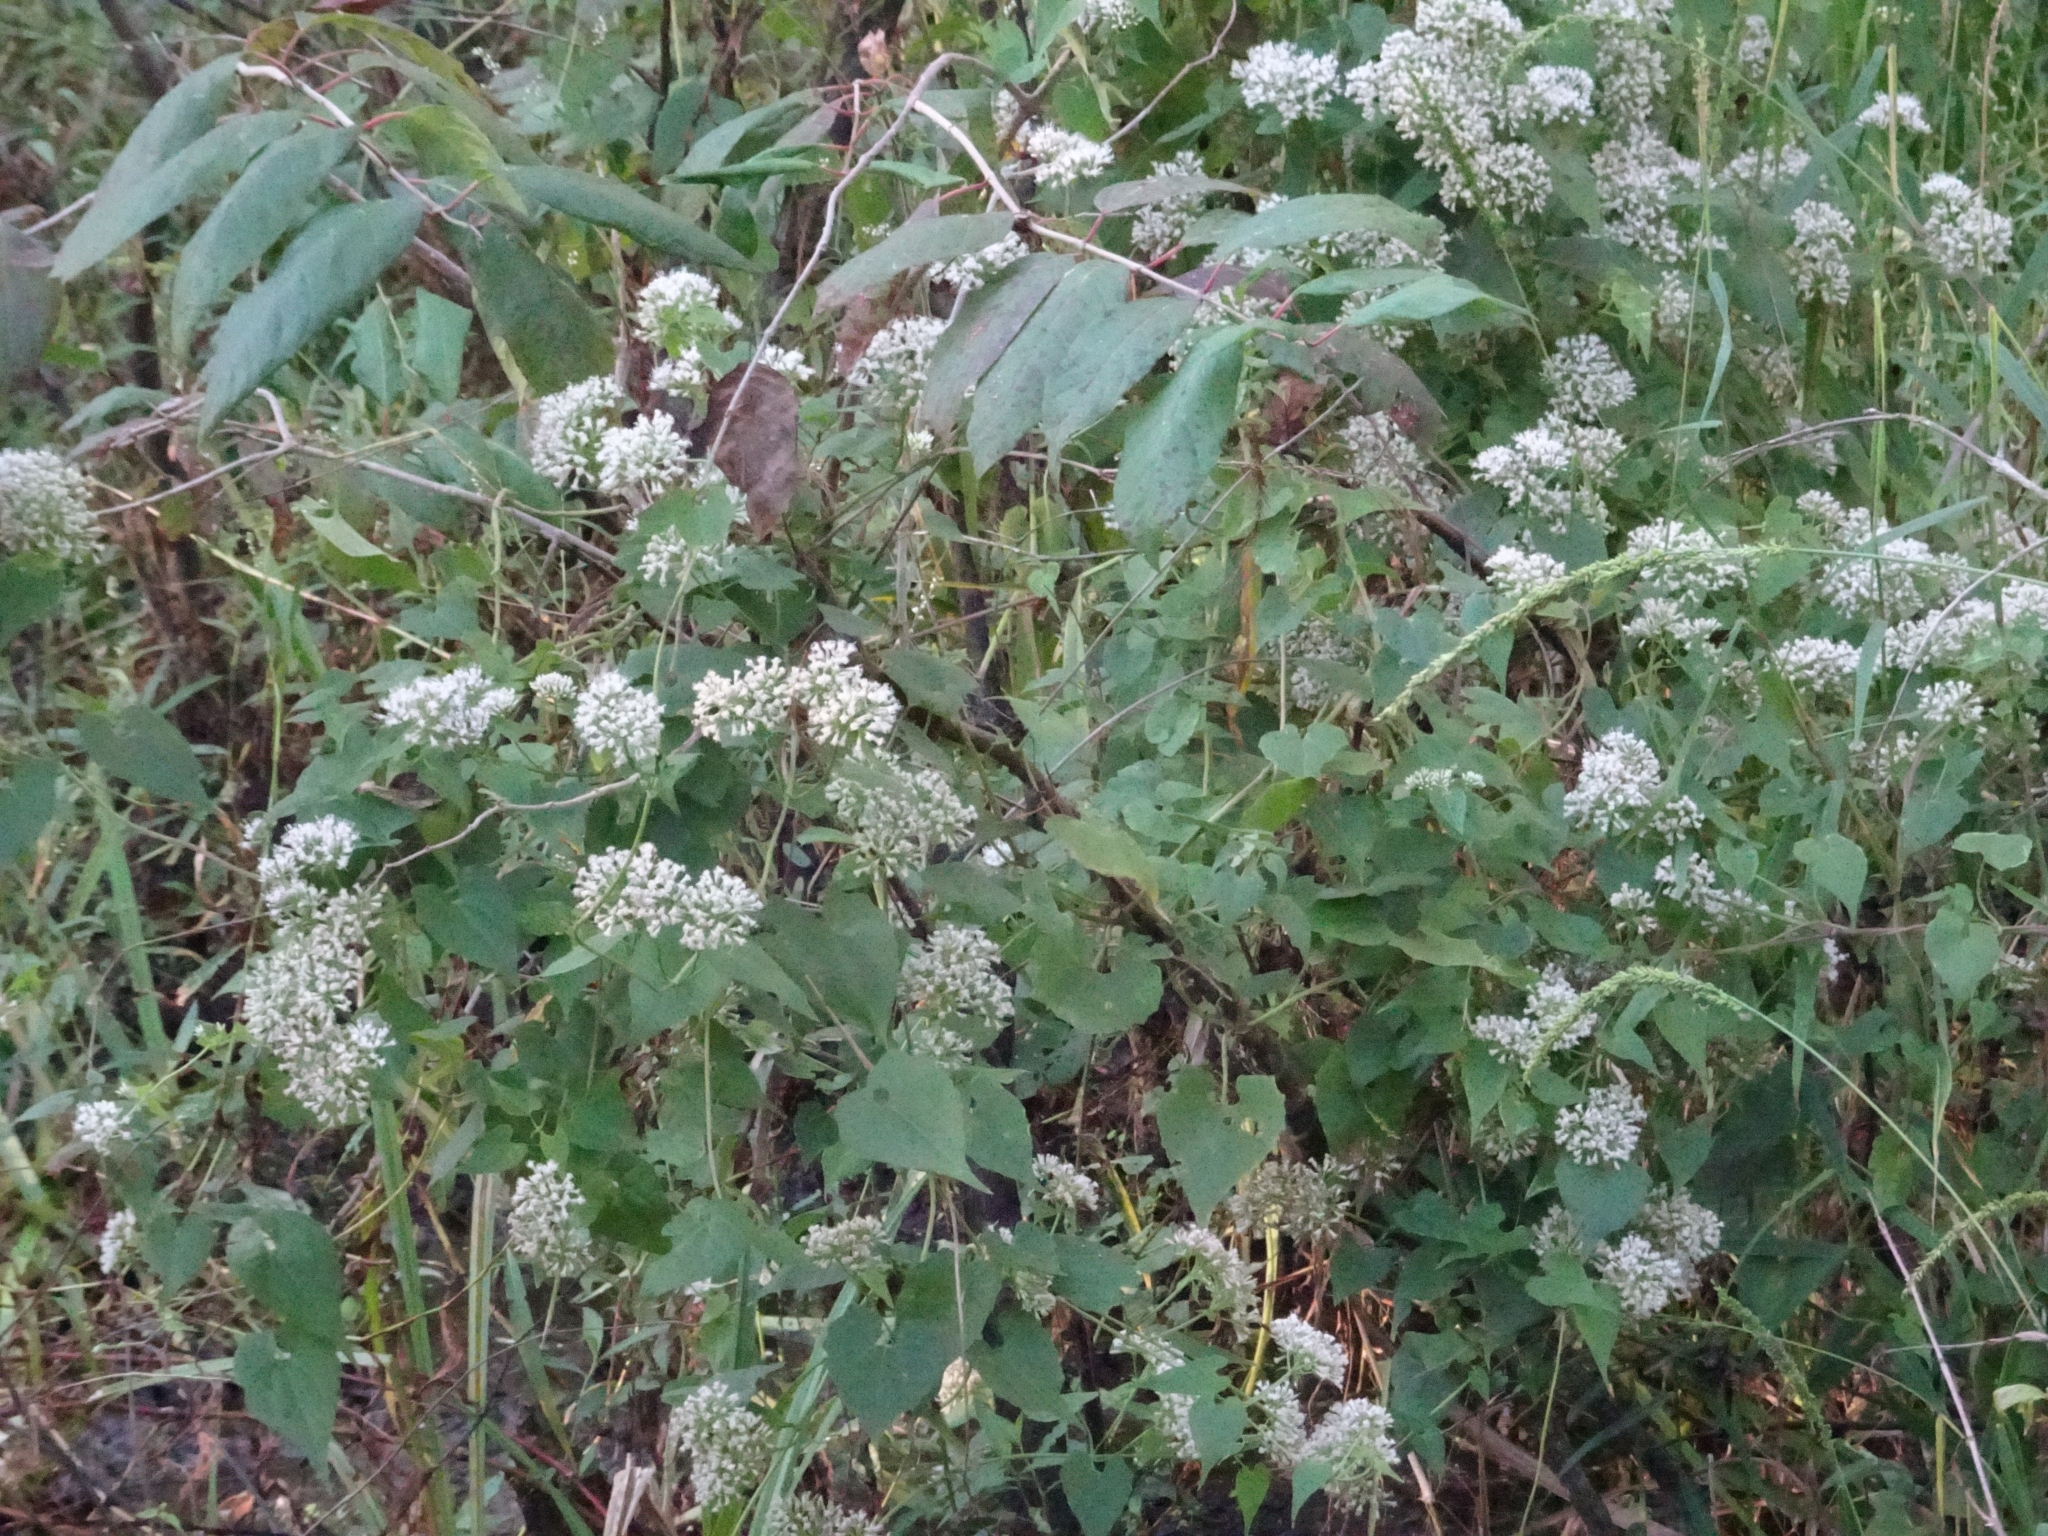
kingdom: Plantae
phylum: Tracheophyta
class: Magnoliopsida
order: Asterales
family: Asteraceae
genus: Mikania
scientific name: Mikania scandens
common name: Climbing hempvine
